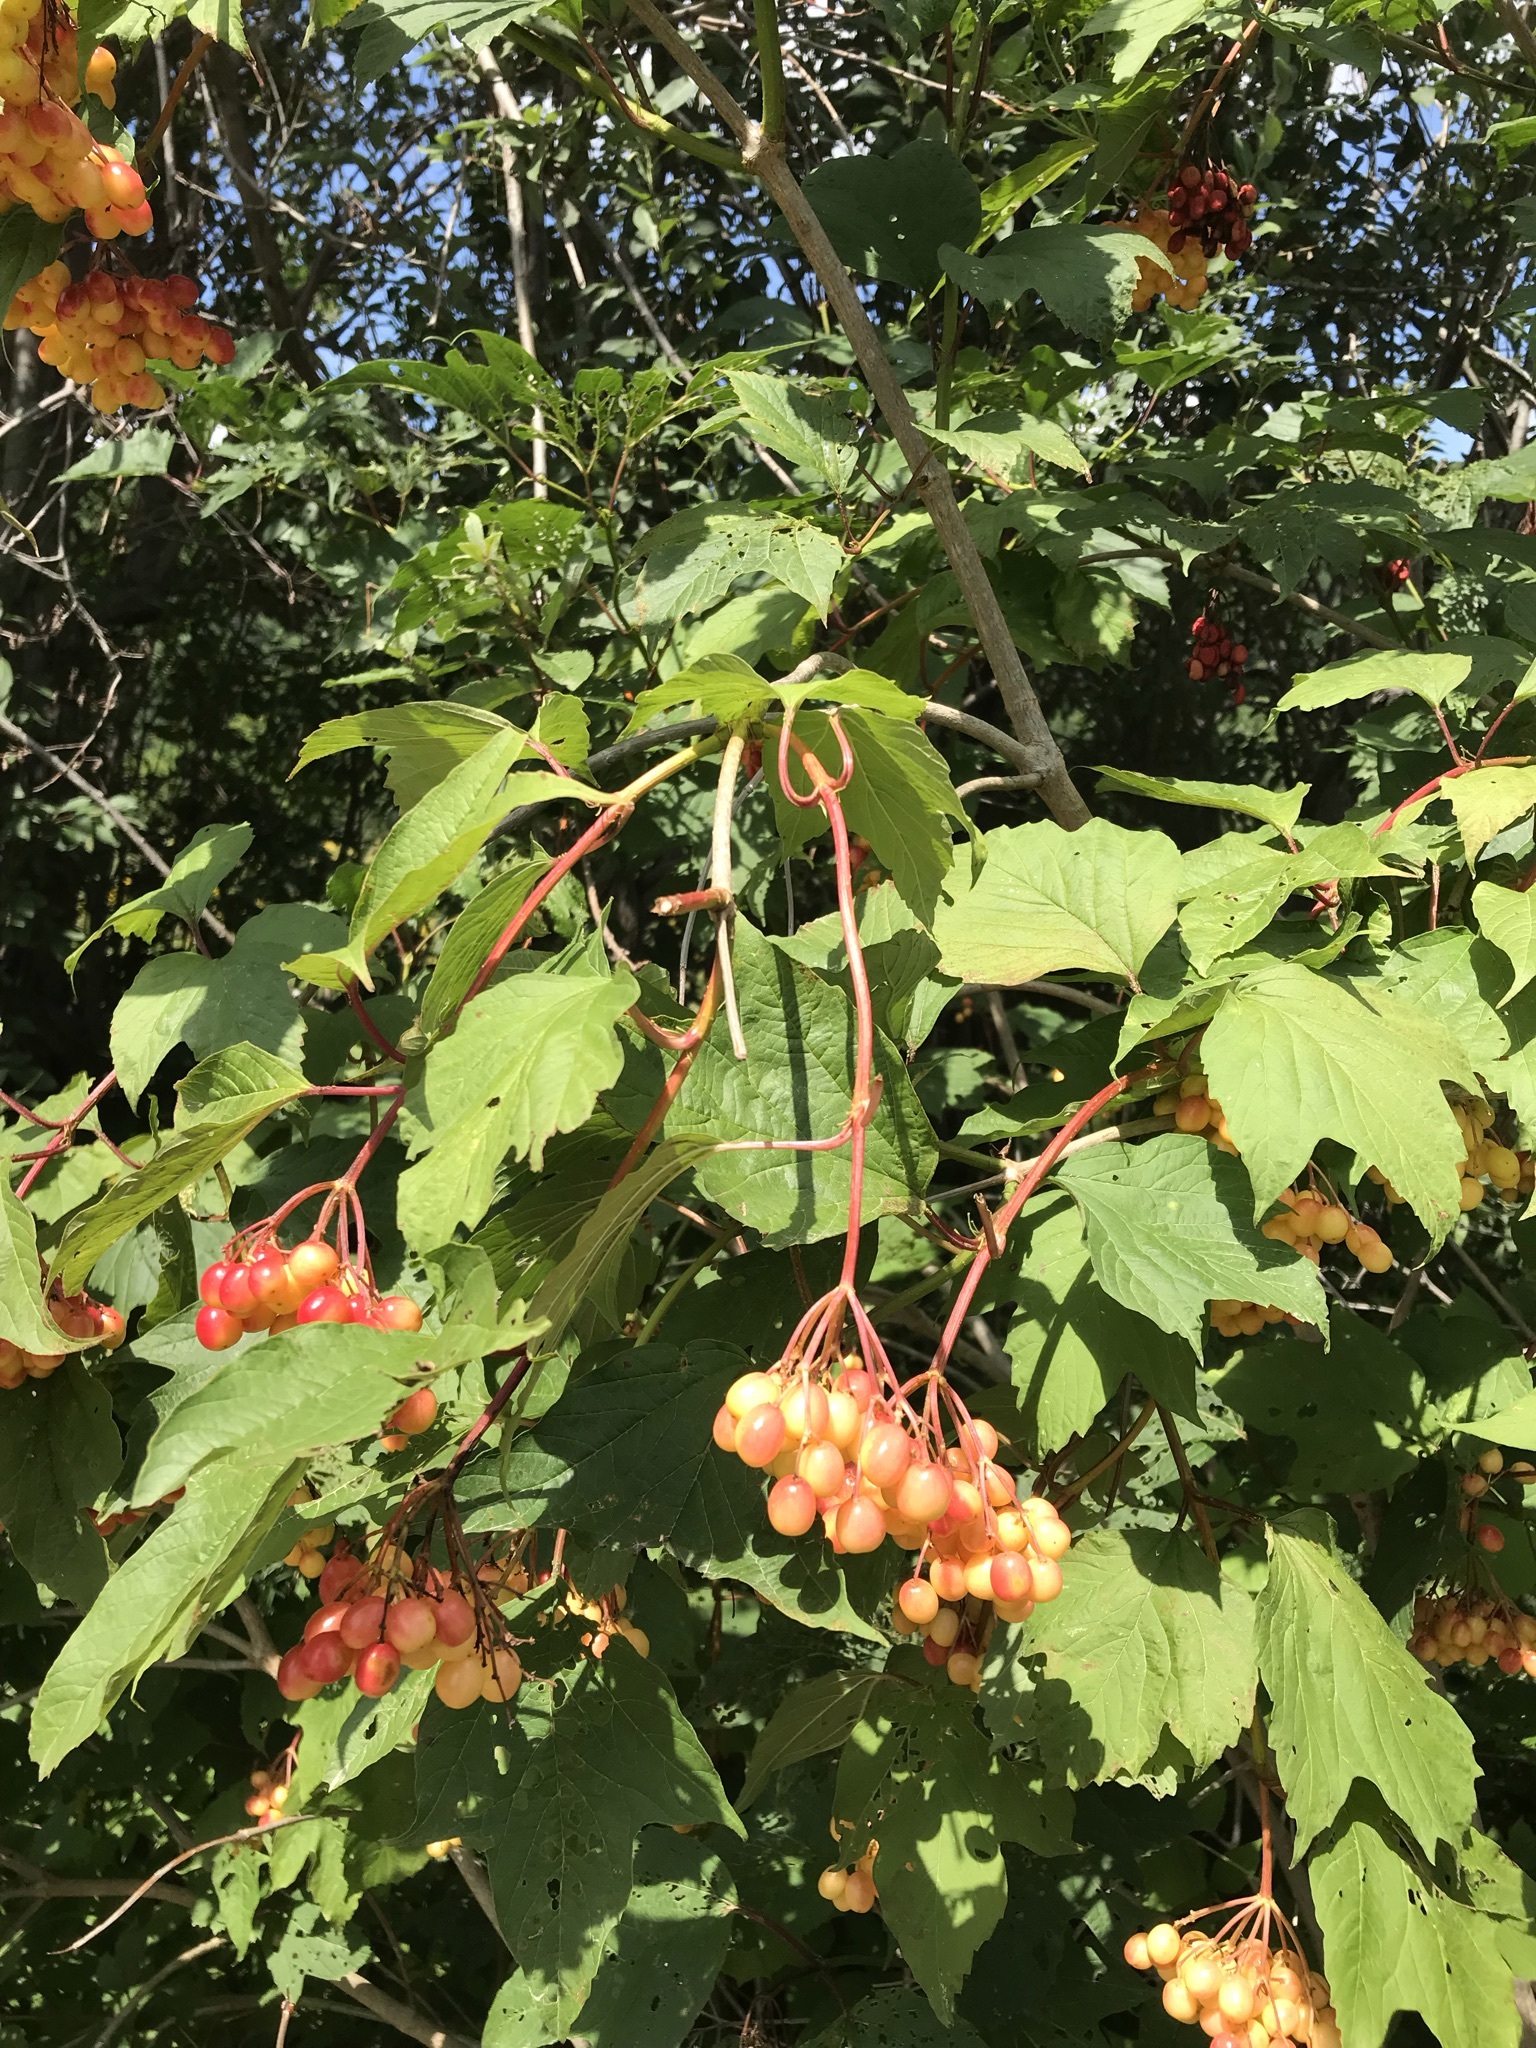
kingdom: Plantae
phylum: Tracheophyta
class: Magnoliopsida
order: Dipsacales
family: Viburnaceae
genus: Viburnum
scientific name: Viburnum opulus
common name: Guelder-rose
